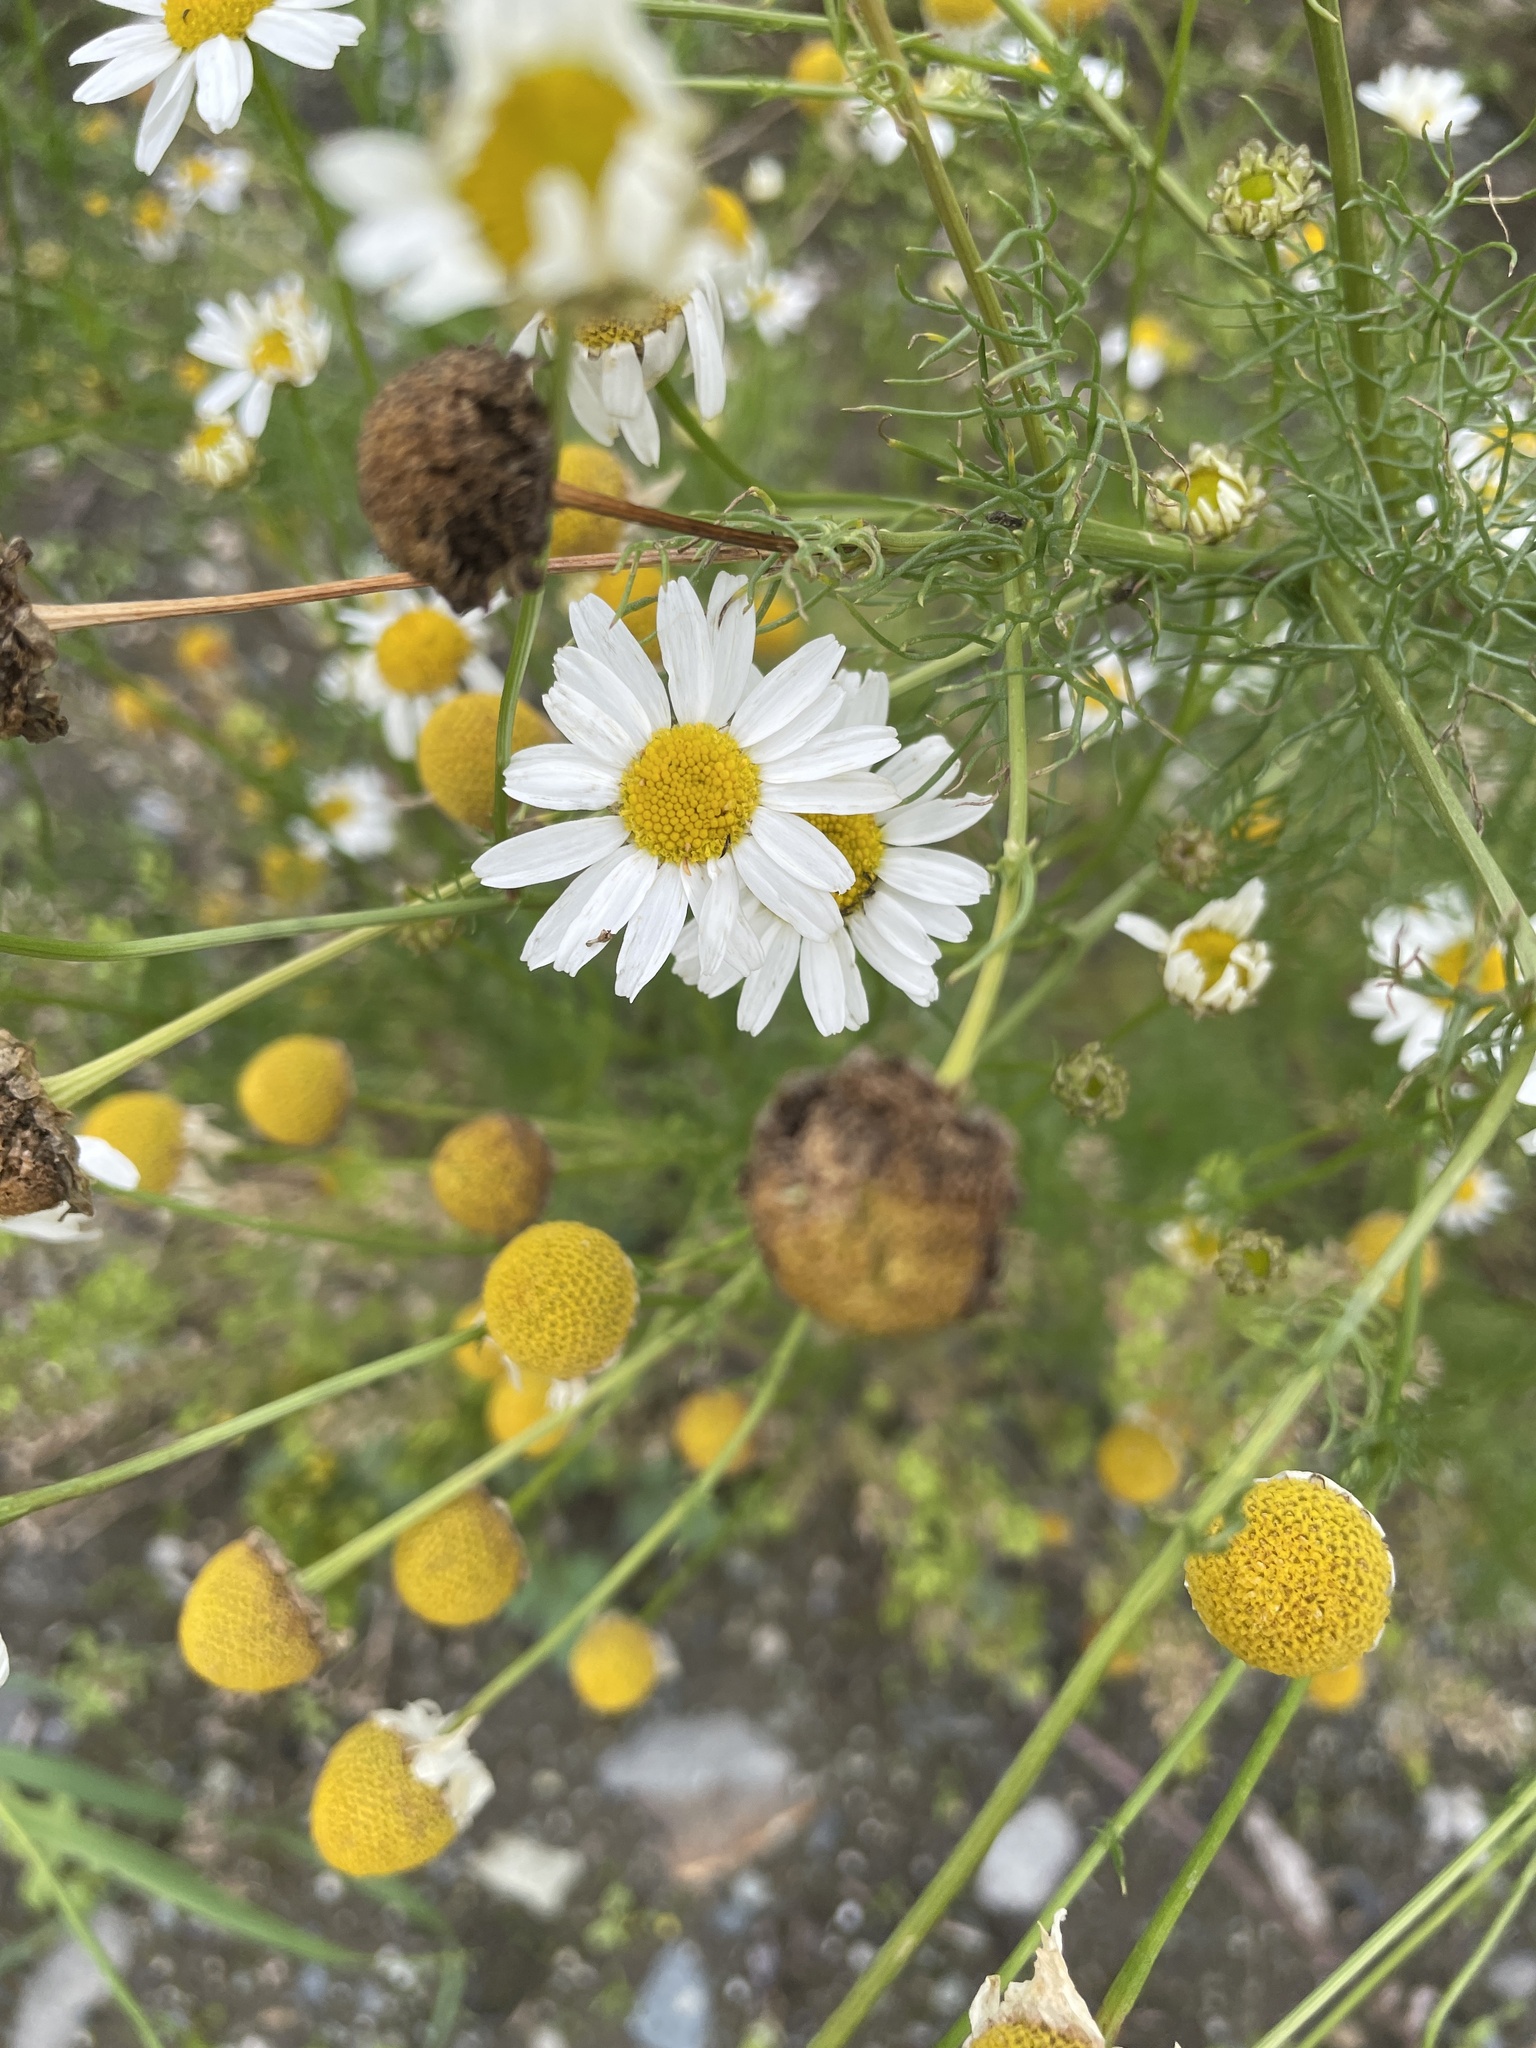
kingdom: Plantae
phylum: Tracheophyta
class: Magnoliopsida
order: Asterales
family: Asteraceae
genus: Tripleurospermum
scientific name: Tripleurospermum inodorum
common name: Scentless mayweed
